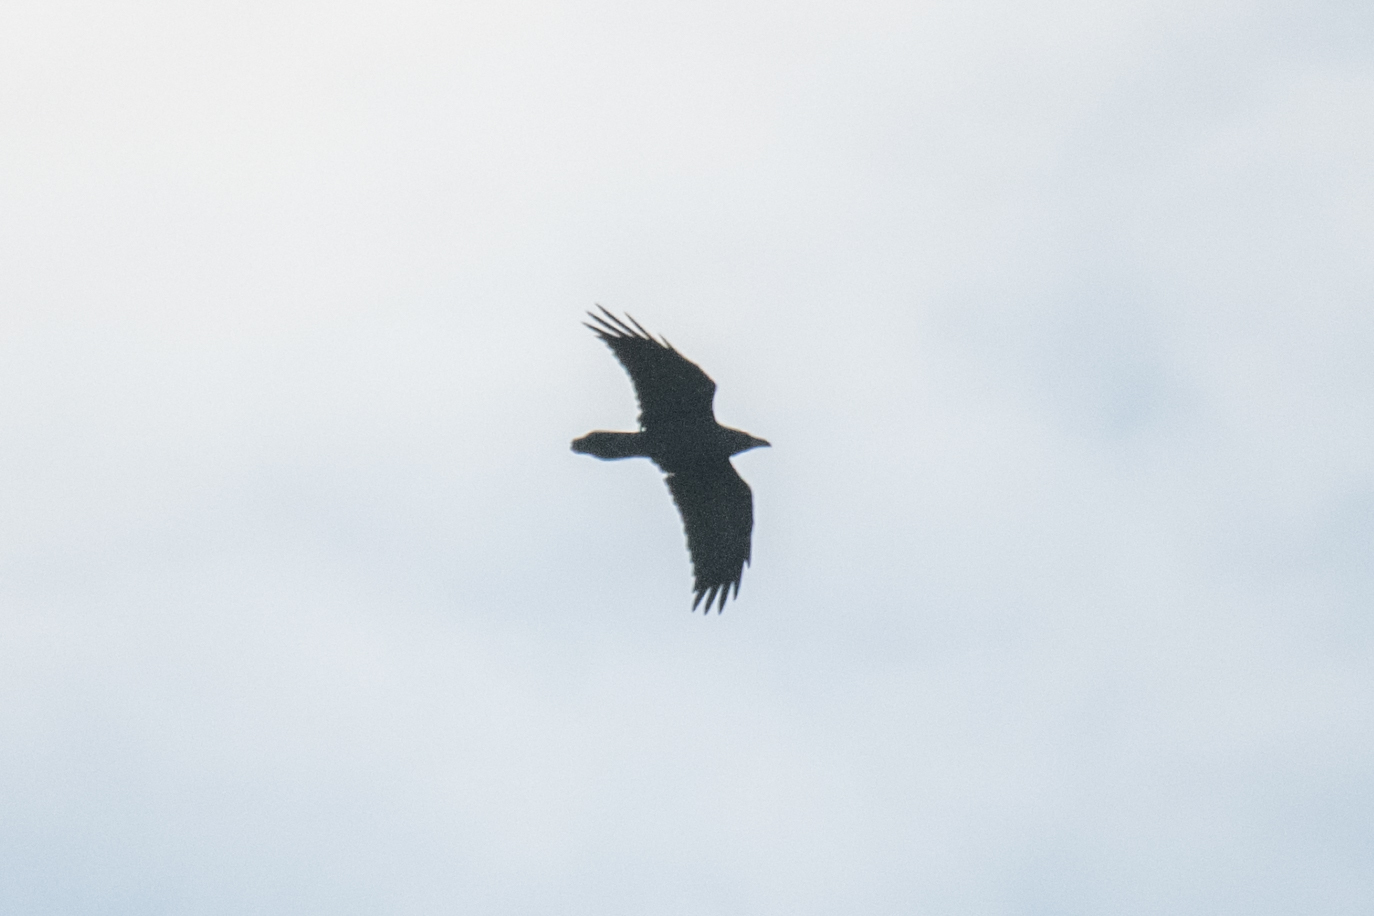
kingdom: Animalia
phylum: Chordata
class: Aves
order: Passeriformes
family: Corvidae
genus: Corvus
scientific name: Corvus corax
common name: Common raven
